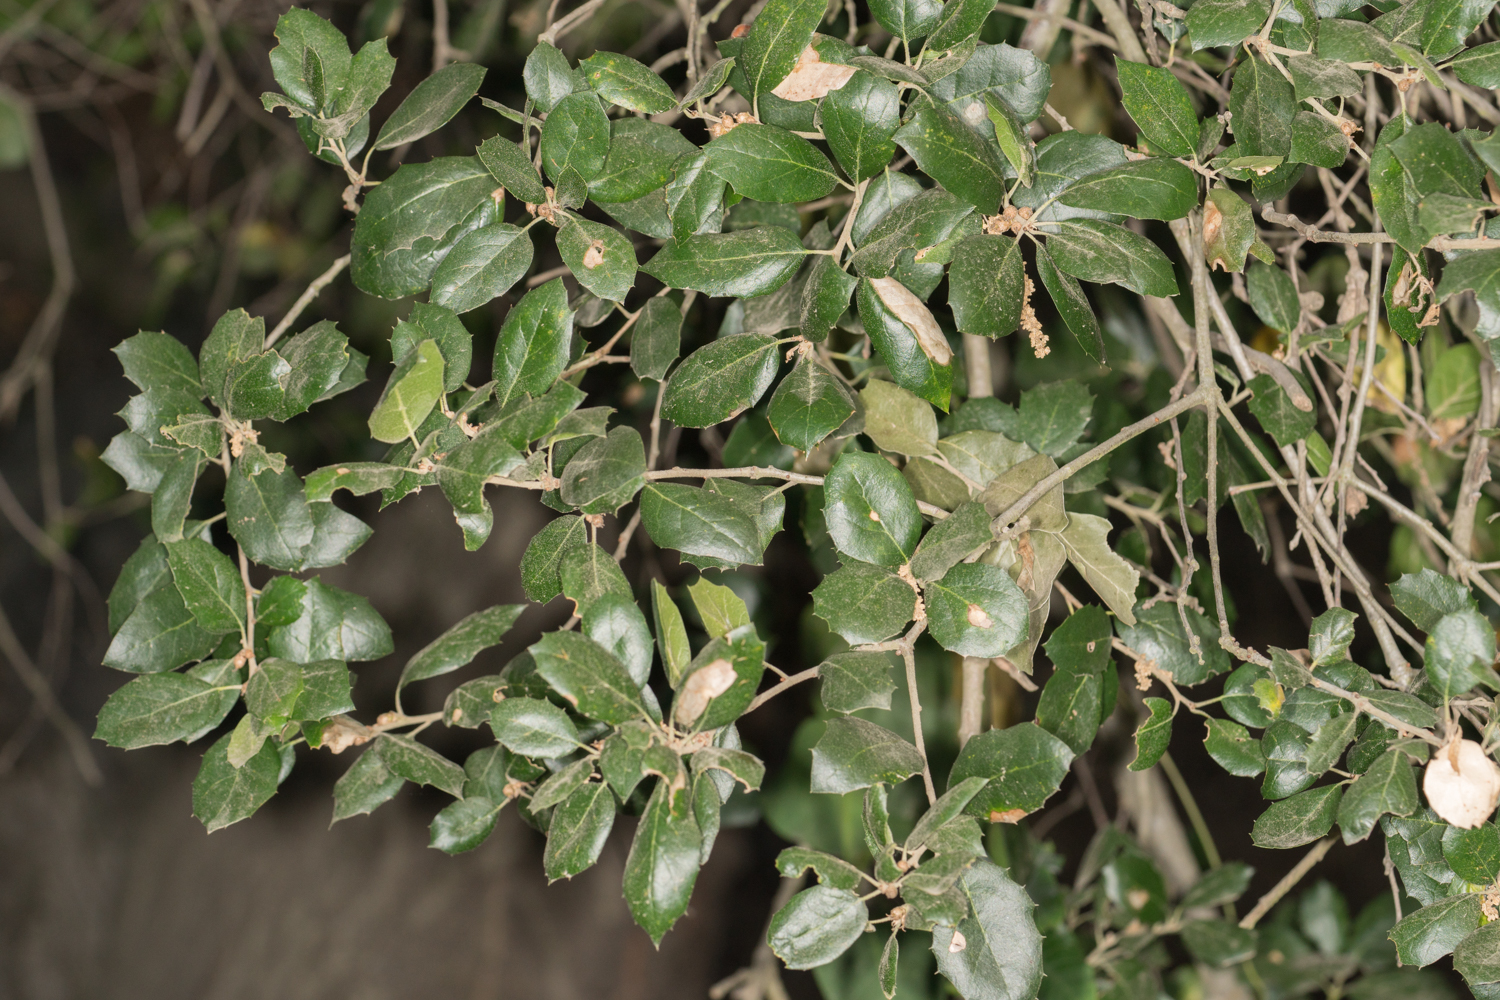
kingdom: Plantae
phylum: Tracheophyta
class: Magnoliopsida
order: Fagales
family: Fagaceae
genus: Quercus
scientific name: Quercus agrifolia
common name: California live oak
